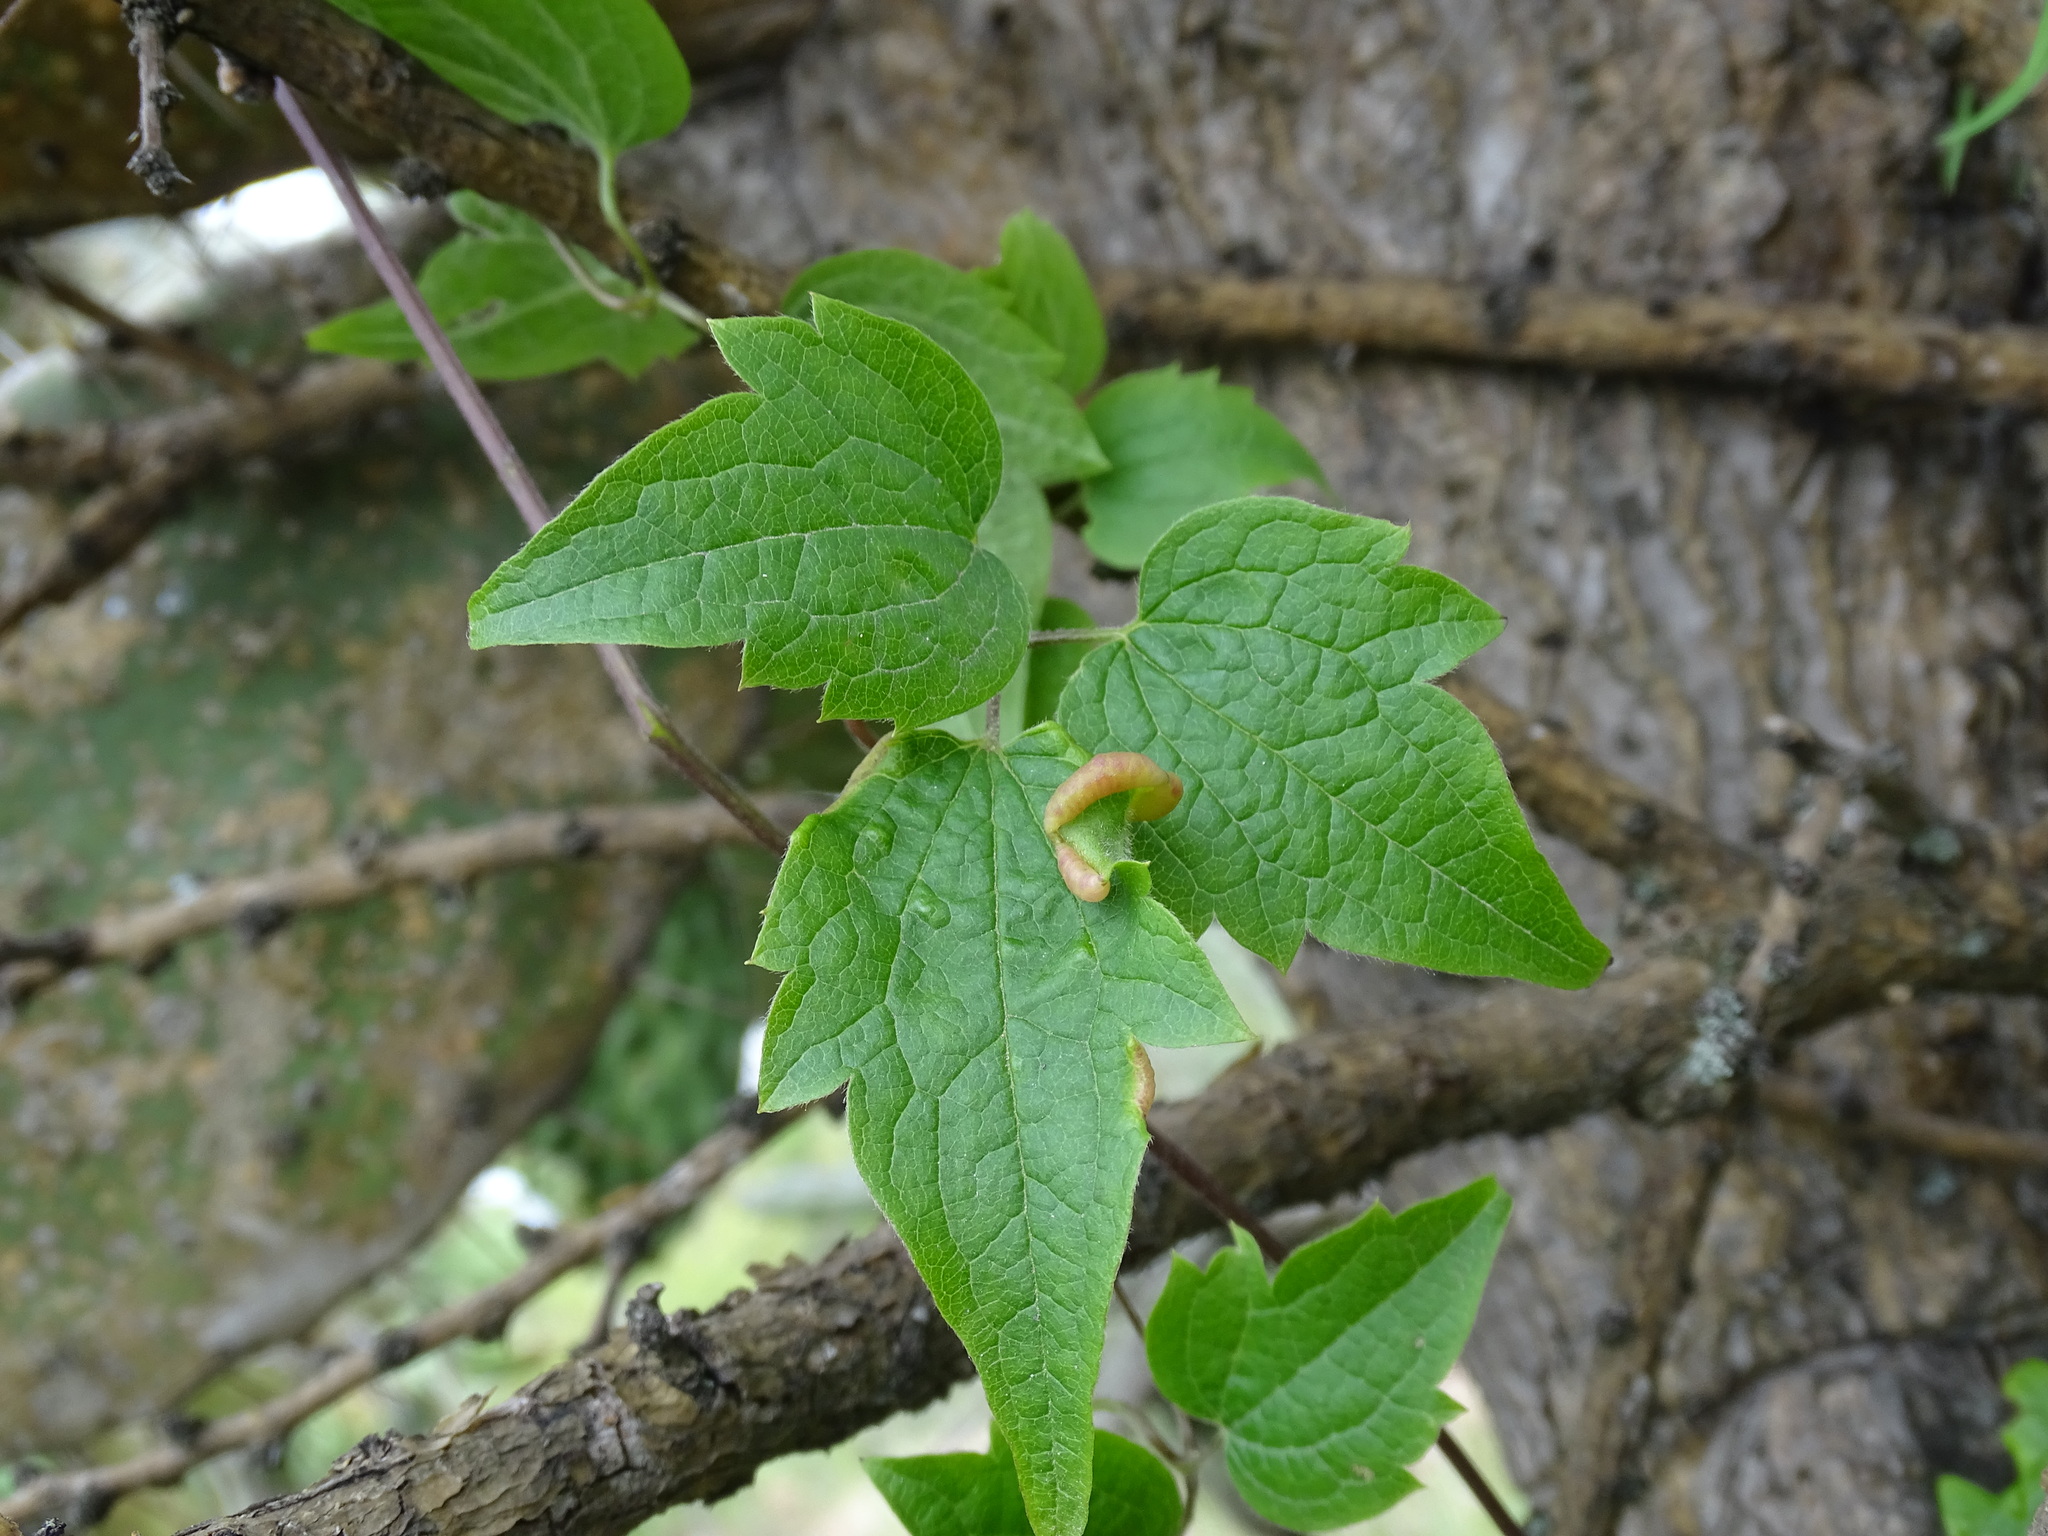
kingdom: Plantae
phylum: Tracheophyta
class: Magnoliopsida
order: Ranunculales
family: Ranunculaceae
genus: Clematis
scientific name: Clematis dioica
